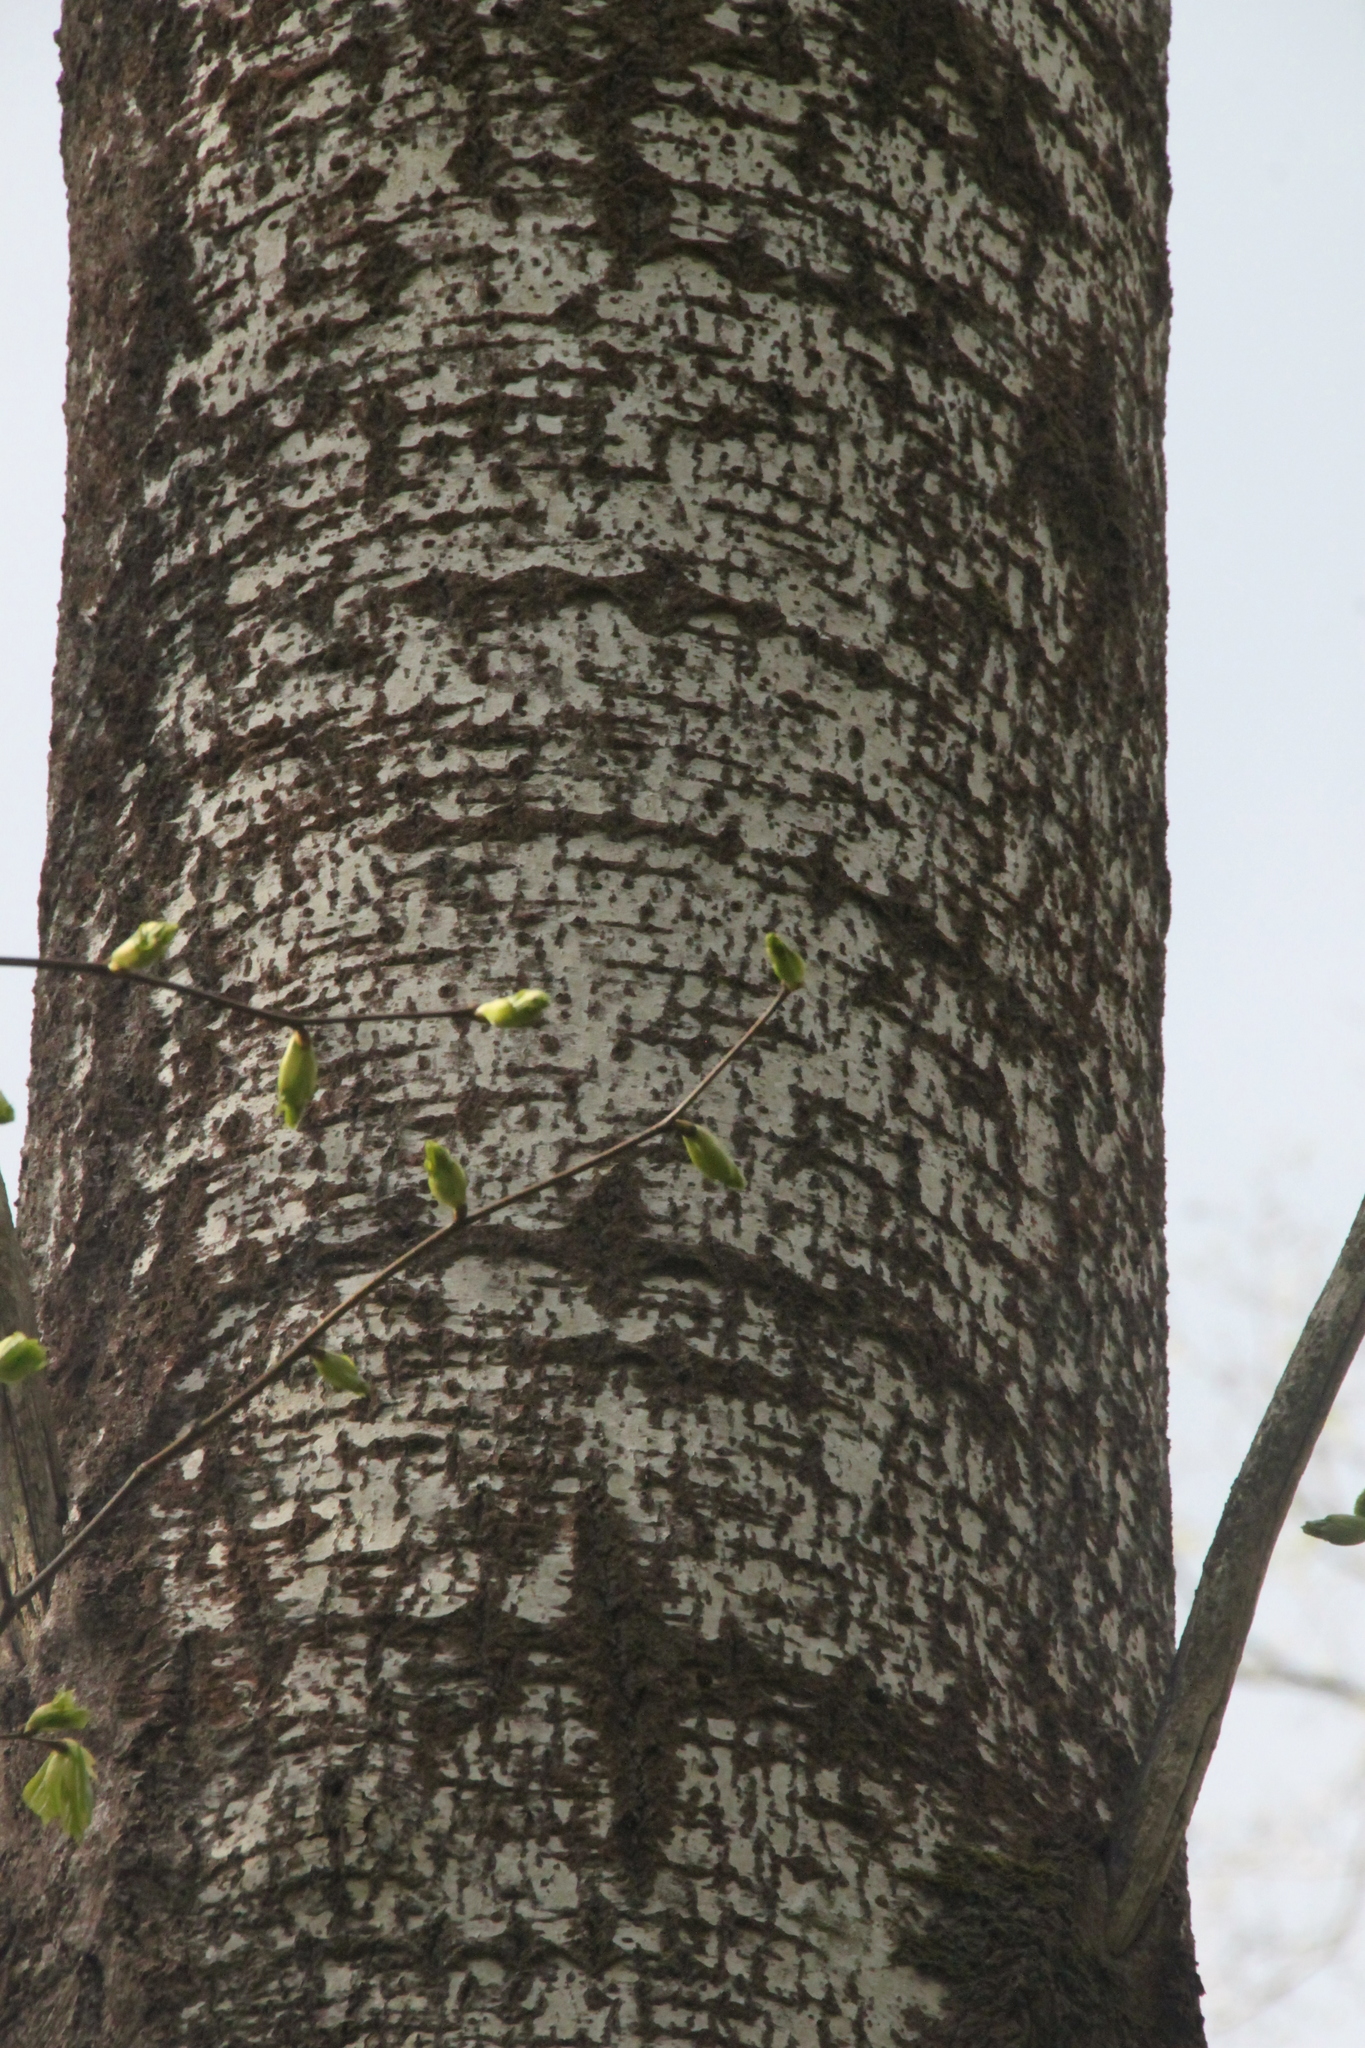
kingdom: Plantae
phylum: Tracheophyta
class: Magnoliopsida
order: Malpighiales
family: Salicaceae
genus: Populus
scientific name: Populus tremula
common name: European aspen
